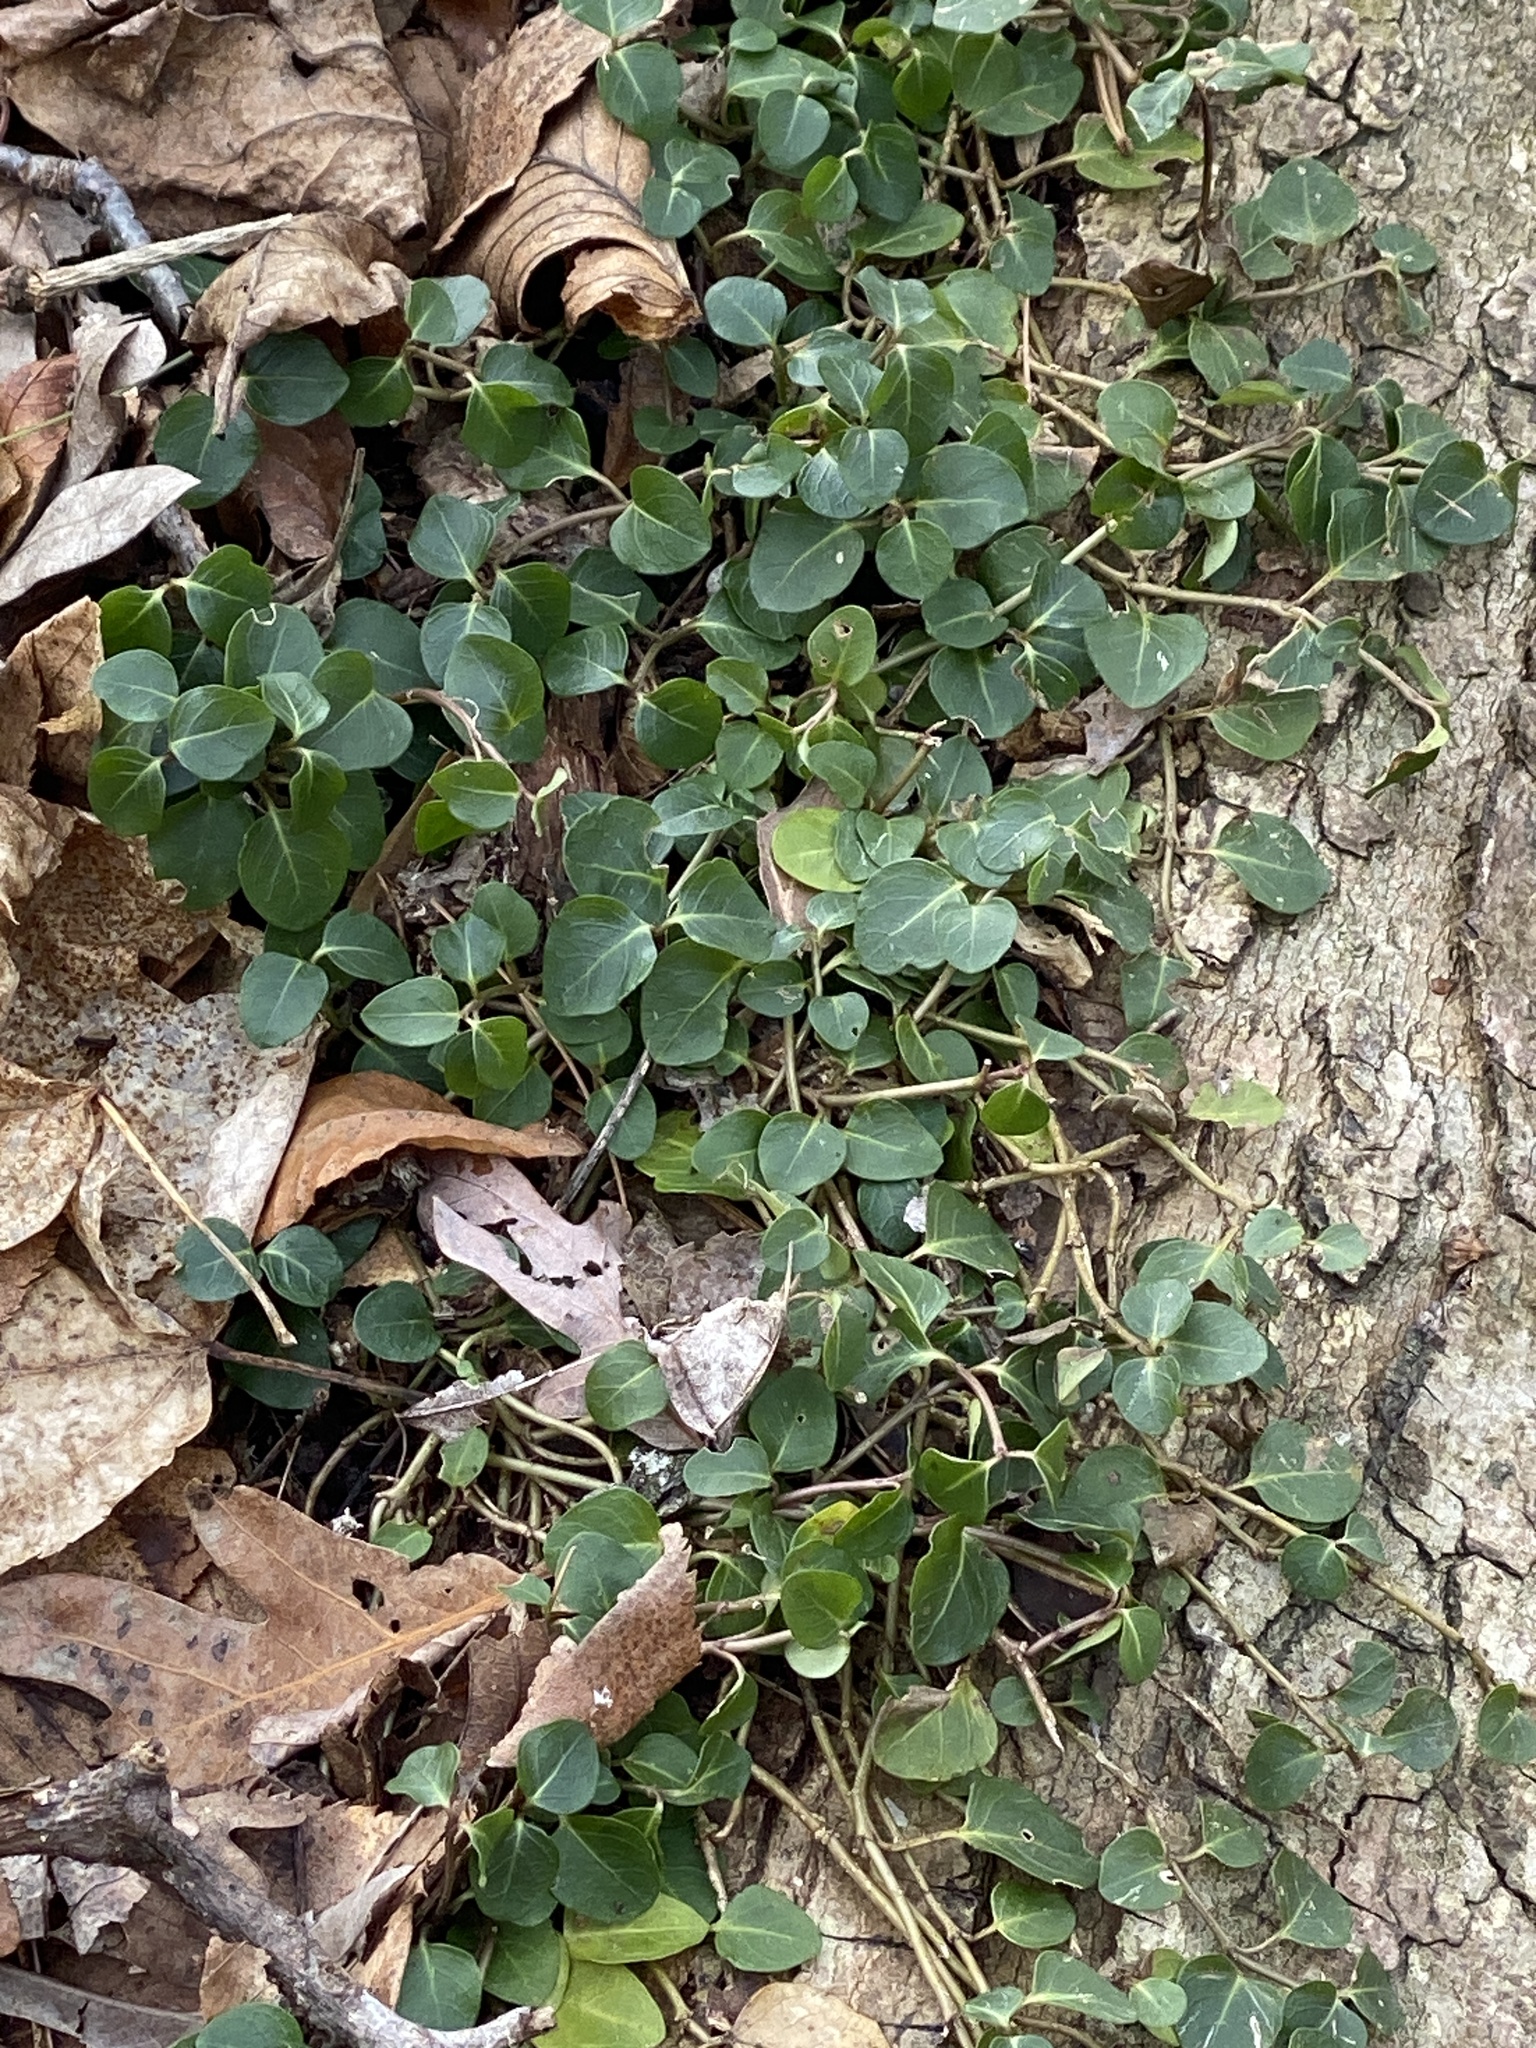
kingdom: Plantae
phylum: Tracheophyta
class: Magnoliopsida
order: Gentianales
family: Rubiaceae
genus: Mitchella
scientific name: Mitchella repens
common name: Partridge-berry
